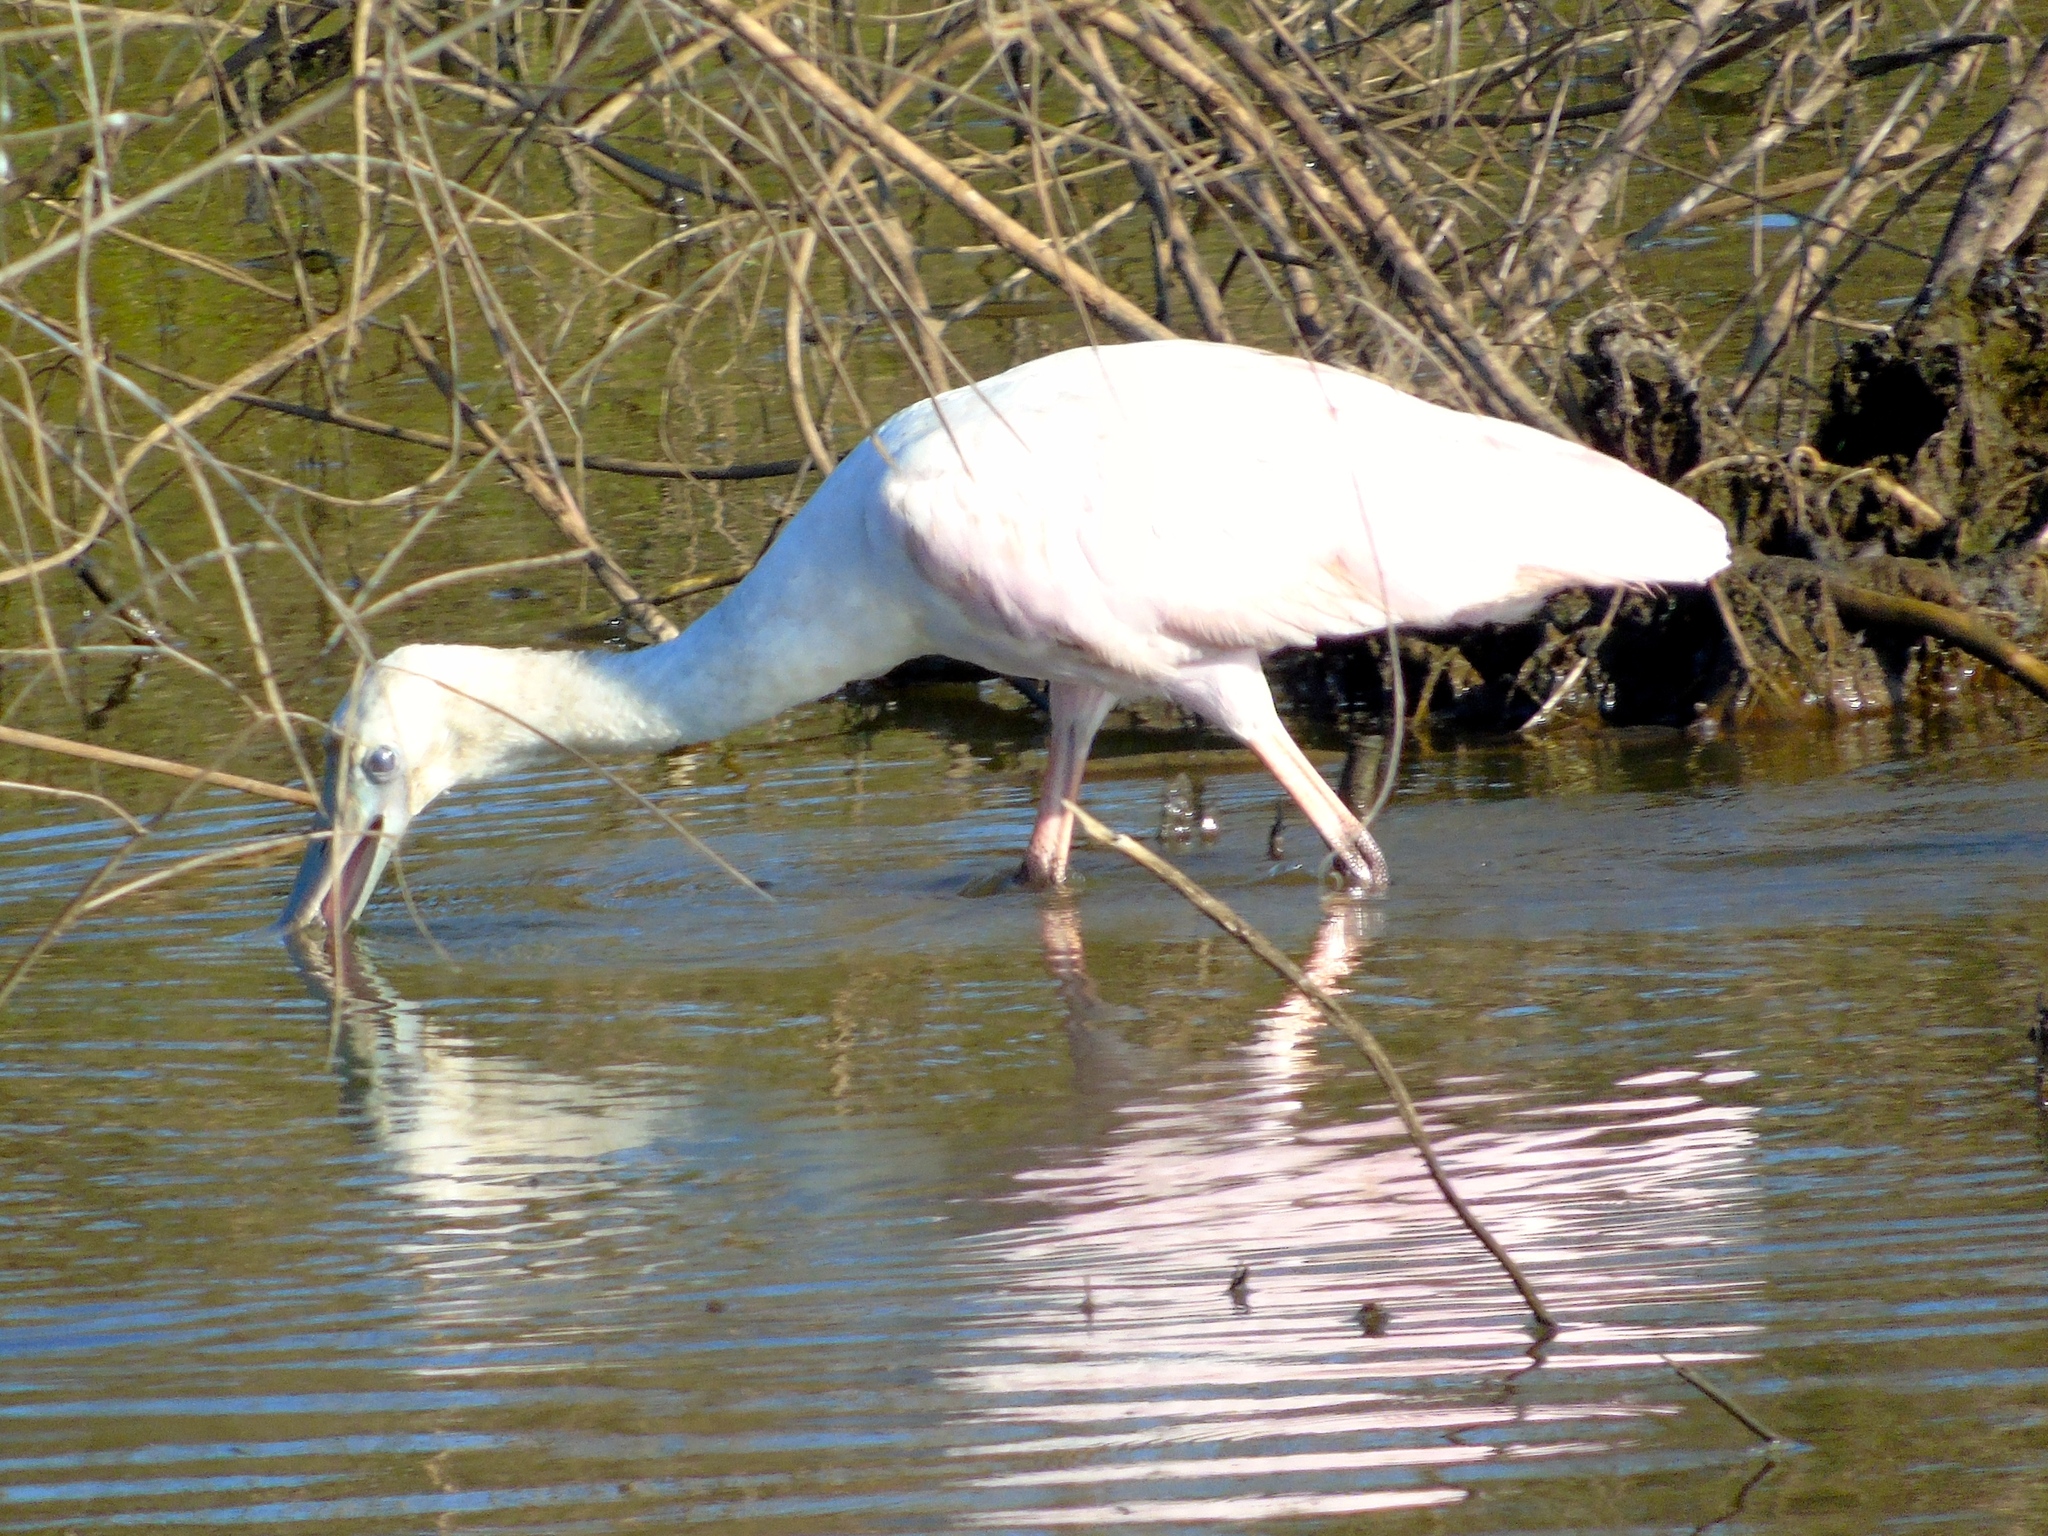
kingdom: Animalia
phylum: Chordata
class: Aves
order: Pelecaniformes
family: Threskiornithidae
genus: Platalea
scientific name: Platalea ajaja
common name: Roseate spoonbill
